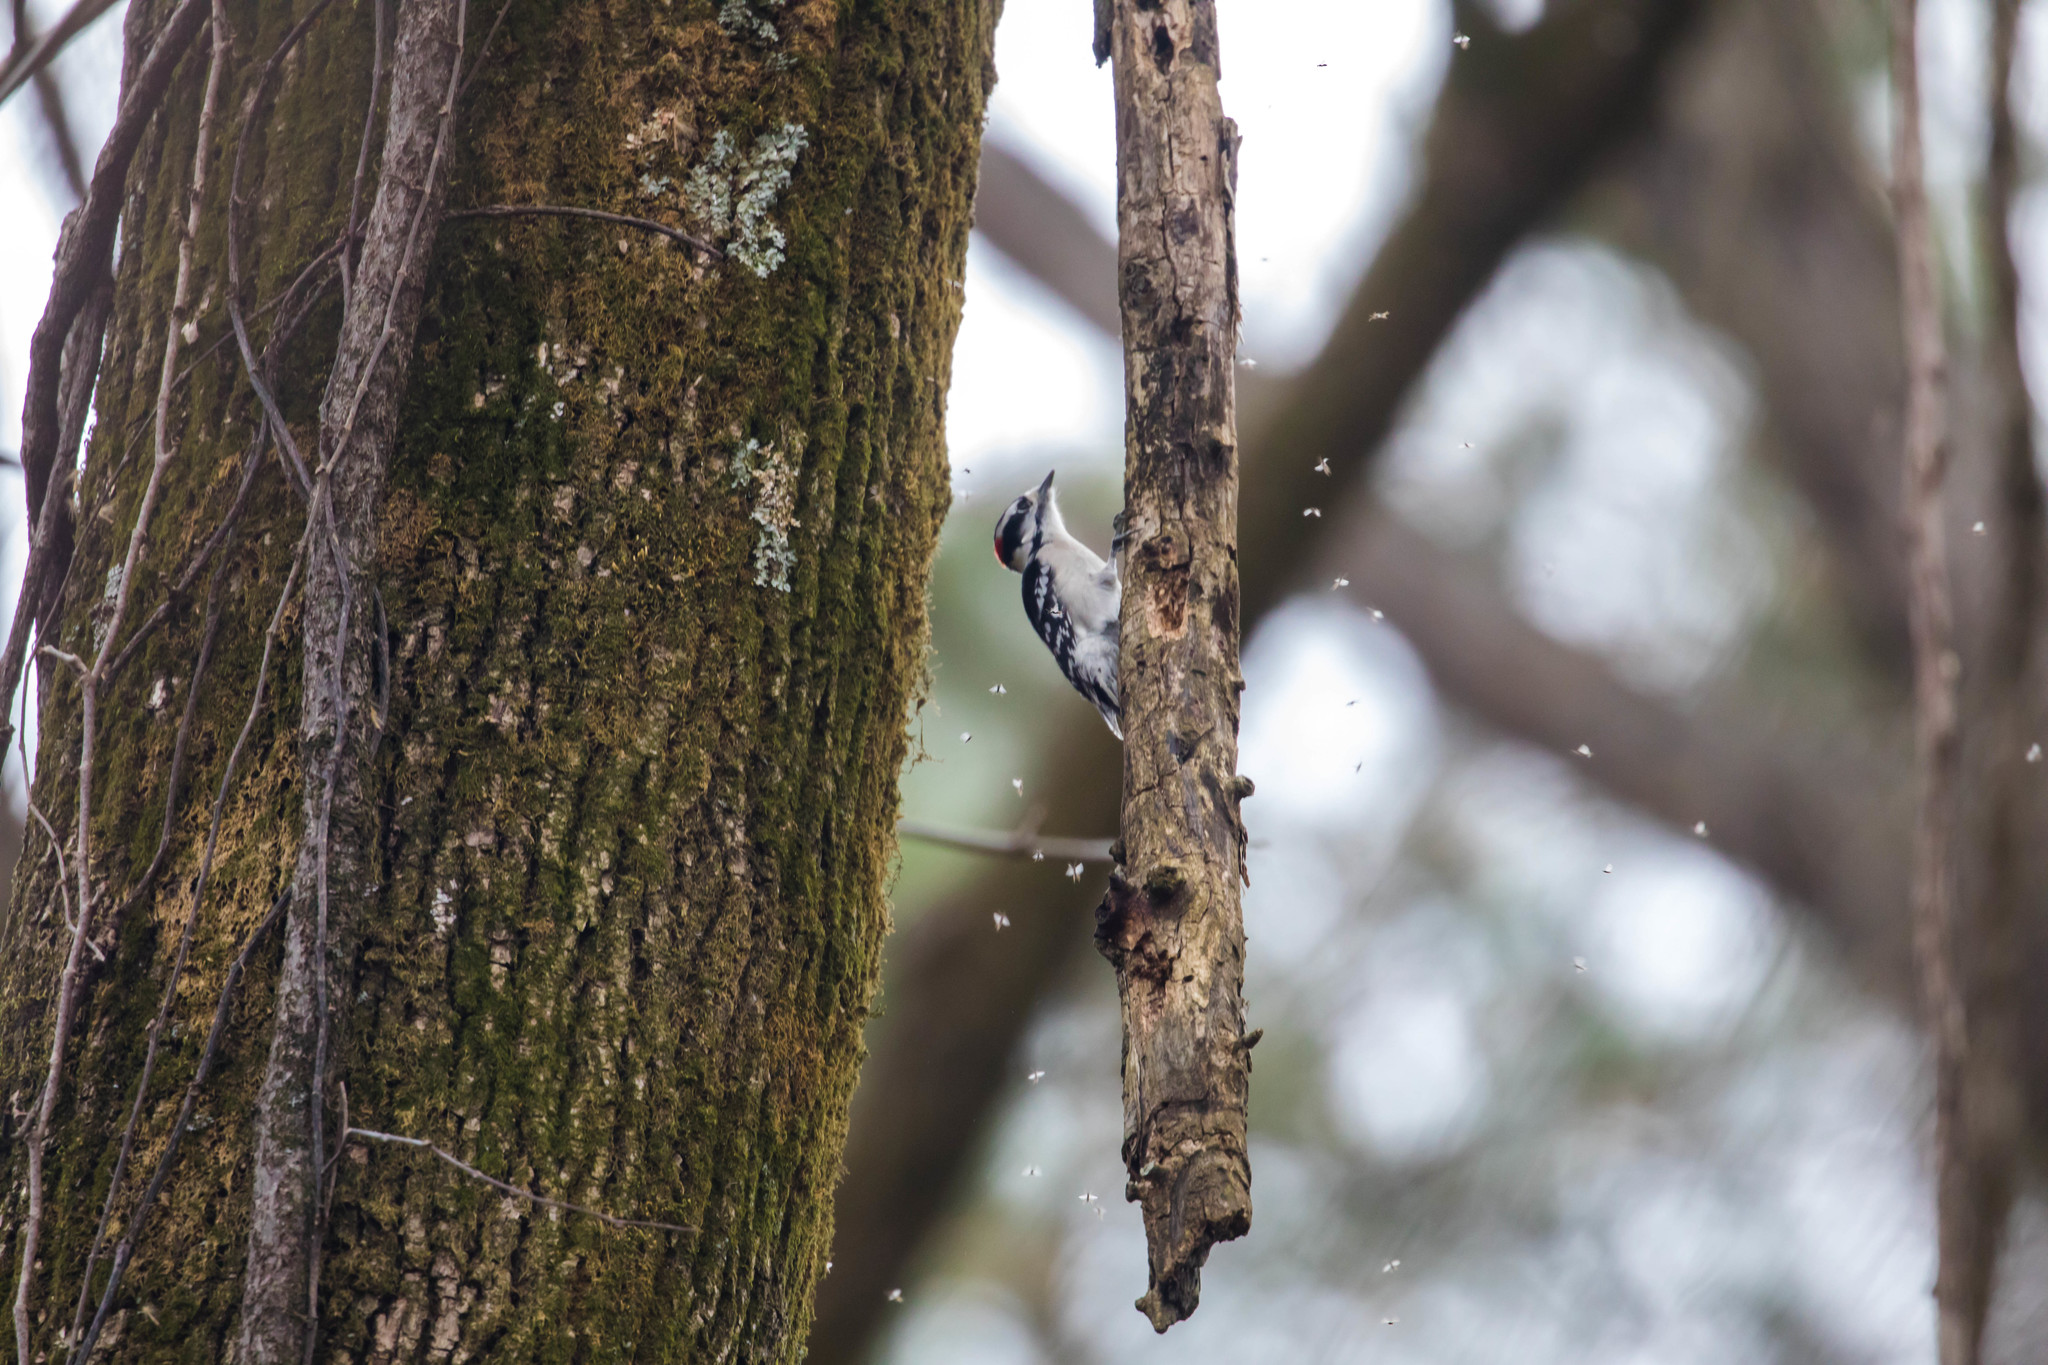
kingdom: Animalia
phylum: Chordata
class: Aves
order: Piciformes
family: Picidae
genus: Dryobates
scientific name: Dryobates pubescens
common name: Downy woodpecker
